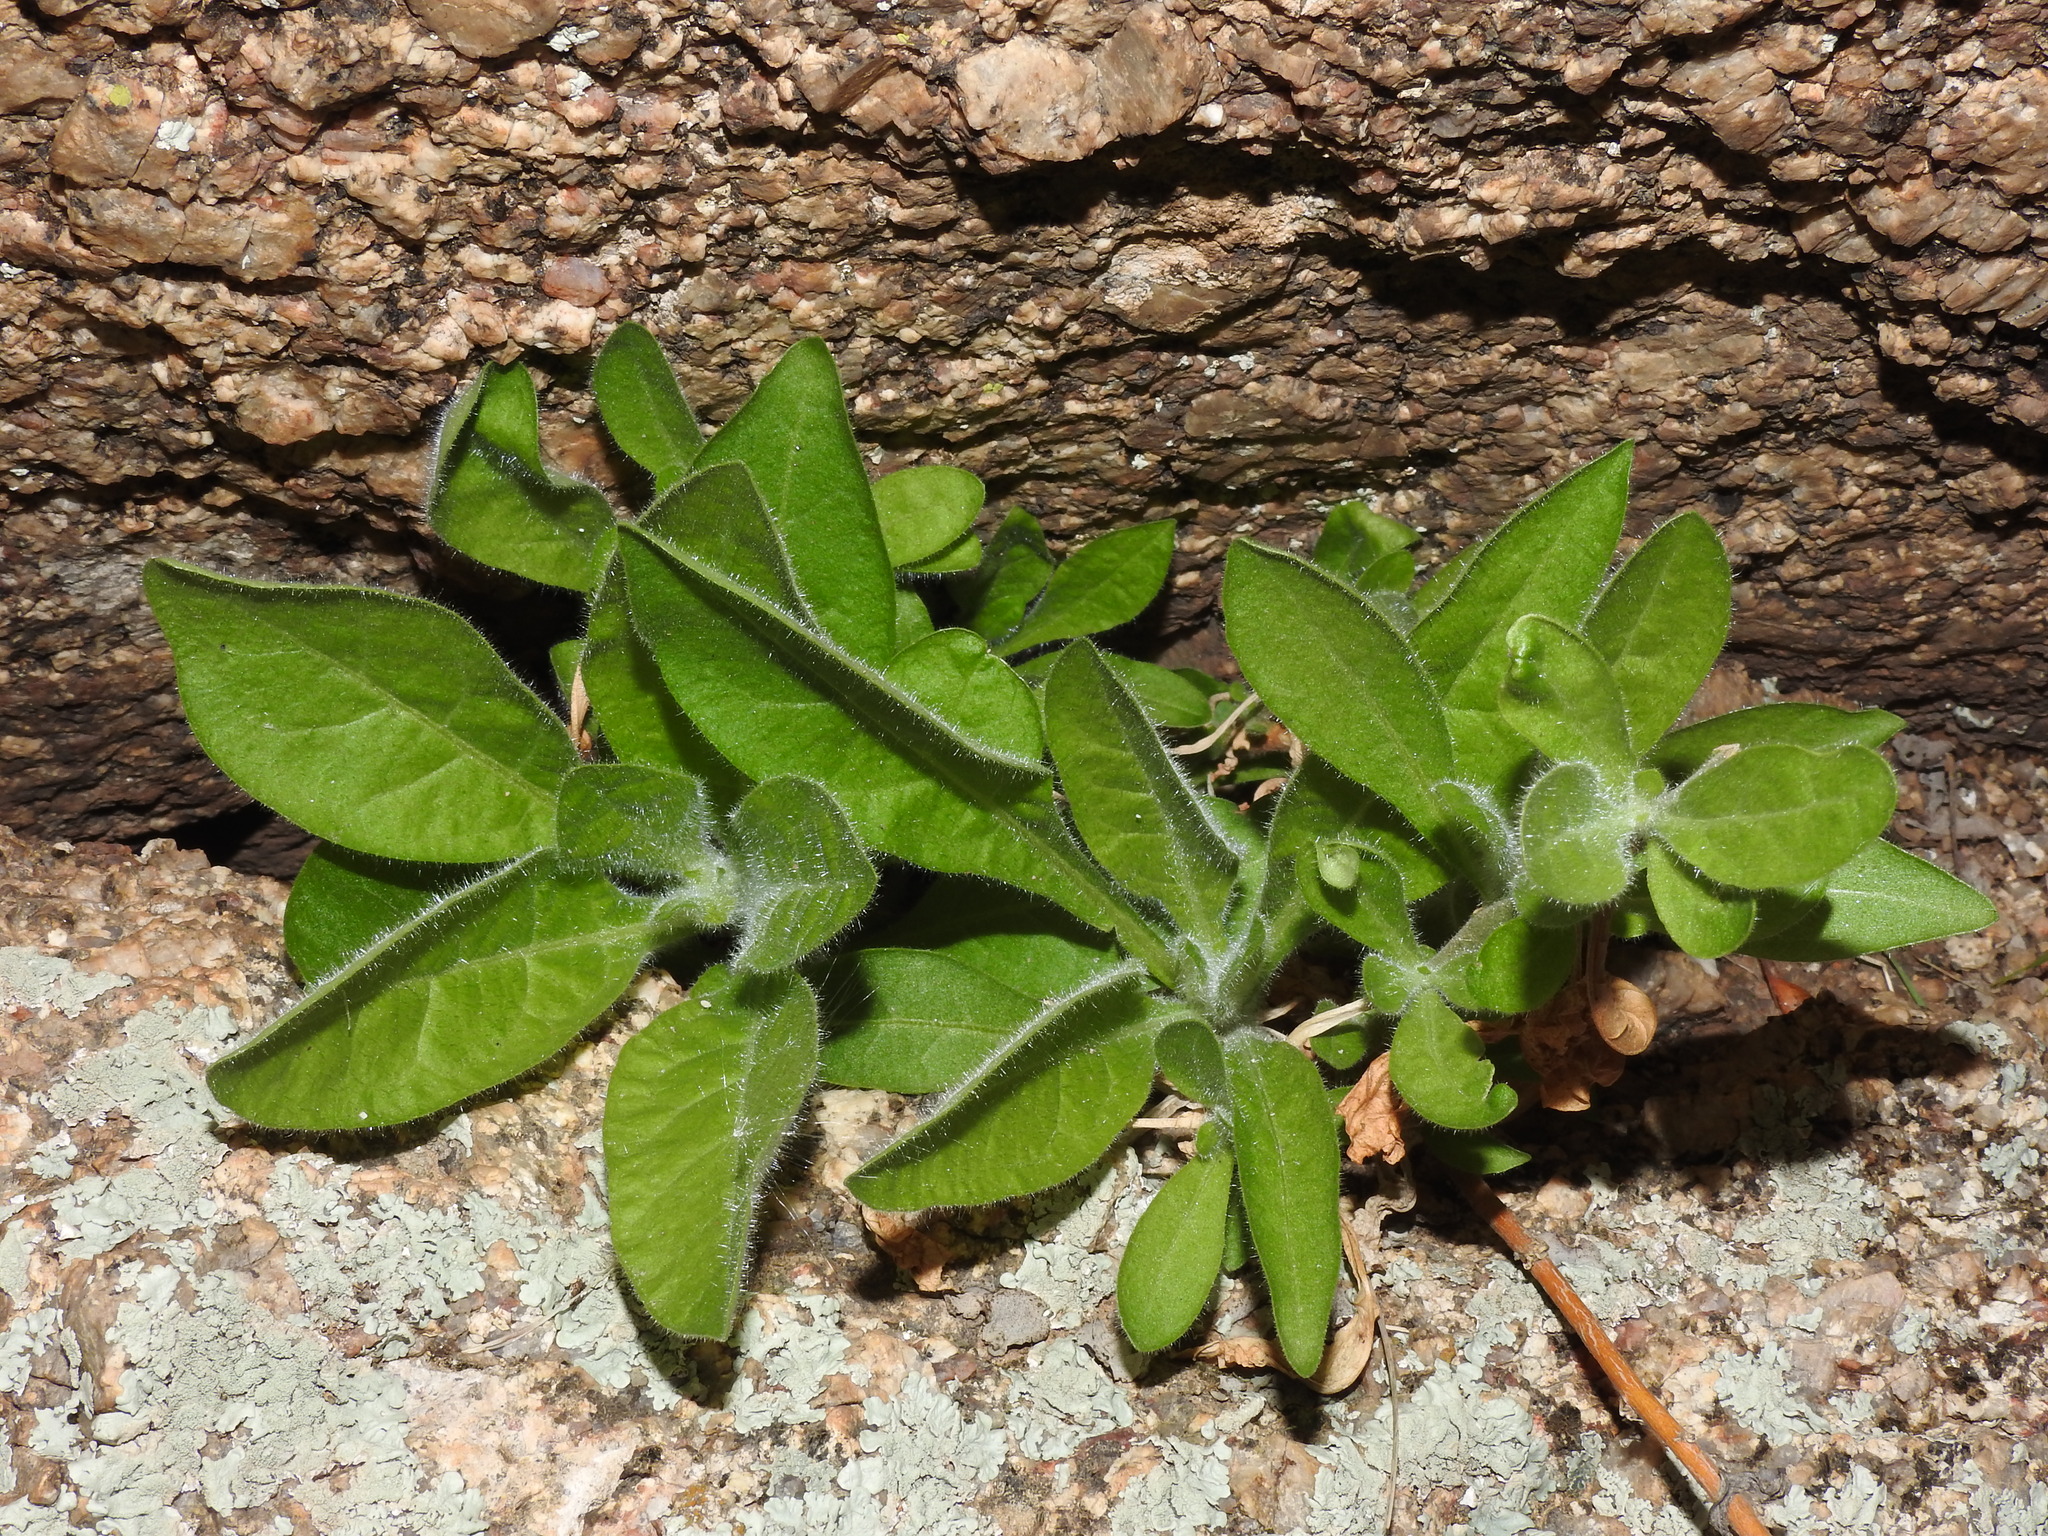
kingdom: Plantae
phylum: Tracheophyta
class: Magnoliopsida
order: Solanales
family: Solanaceae
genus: Nicotiana
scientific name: Nicotiana obtusifolia
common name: Desert tobacco
